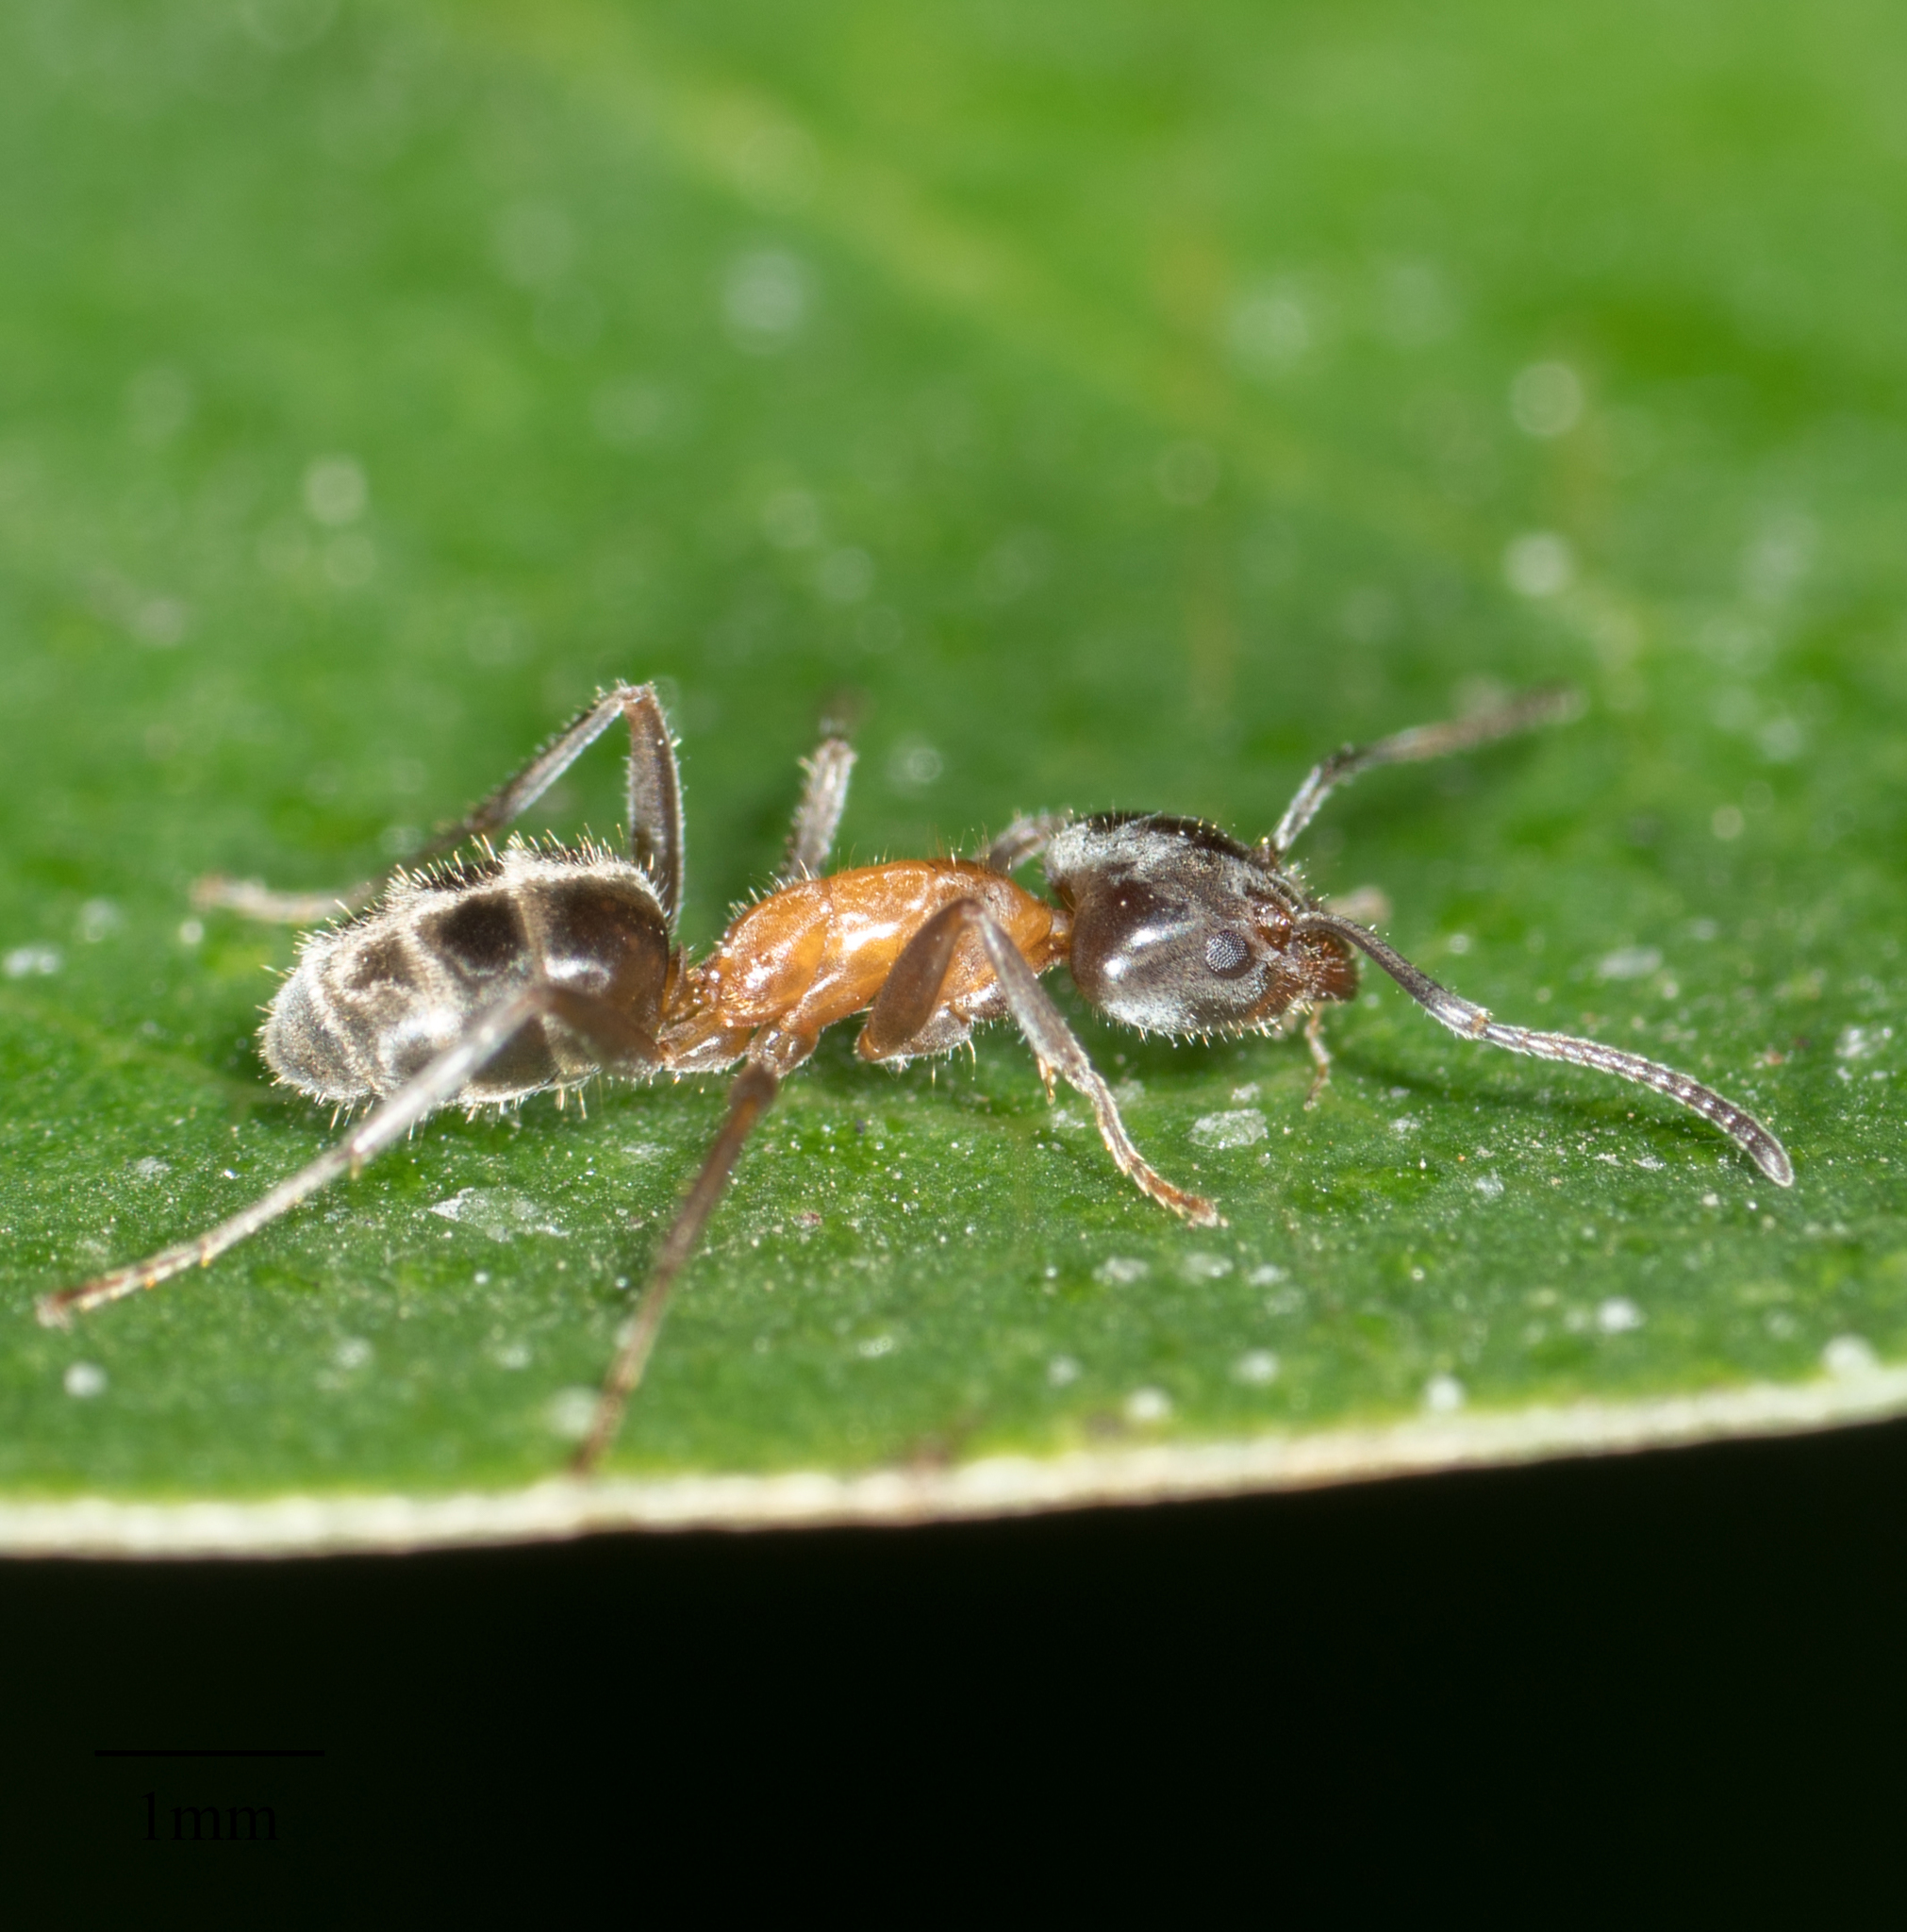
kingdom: Animalia
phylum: Arthropoda
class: Insecta
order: Hymenoptera
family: Formicidae
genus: Liometopum
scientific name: Liometopum occidentale
